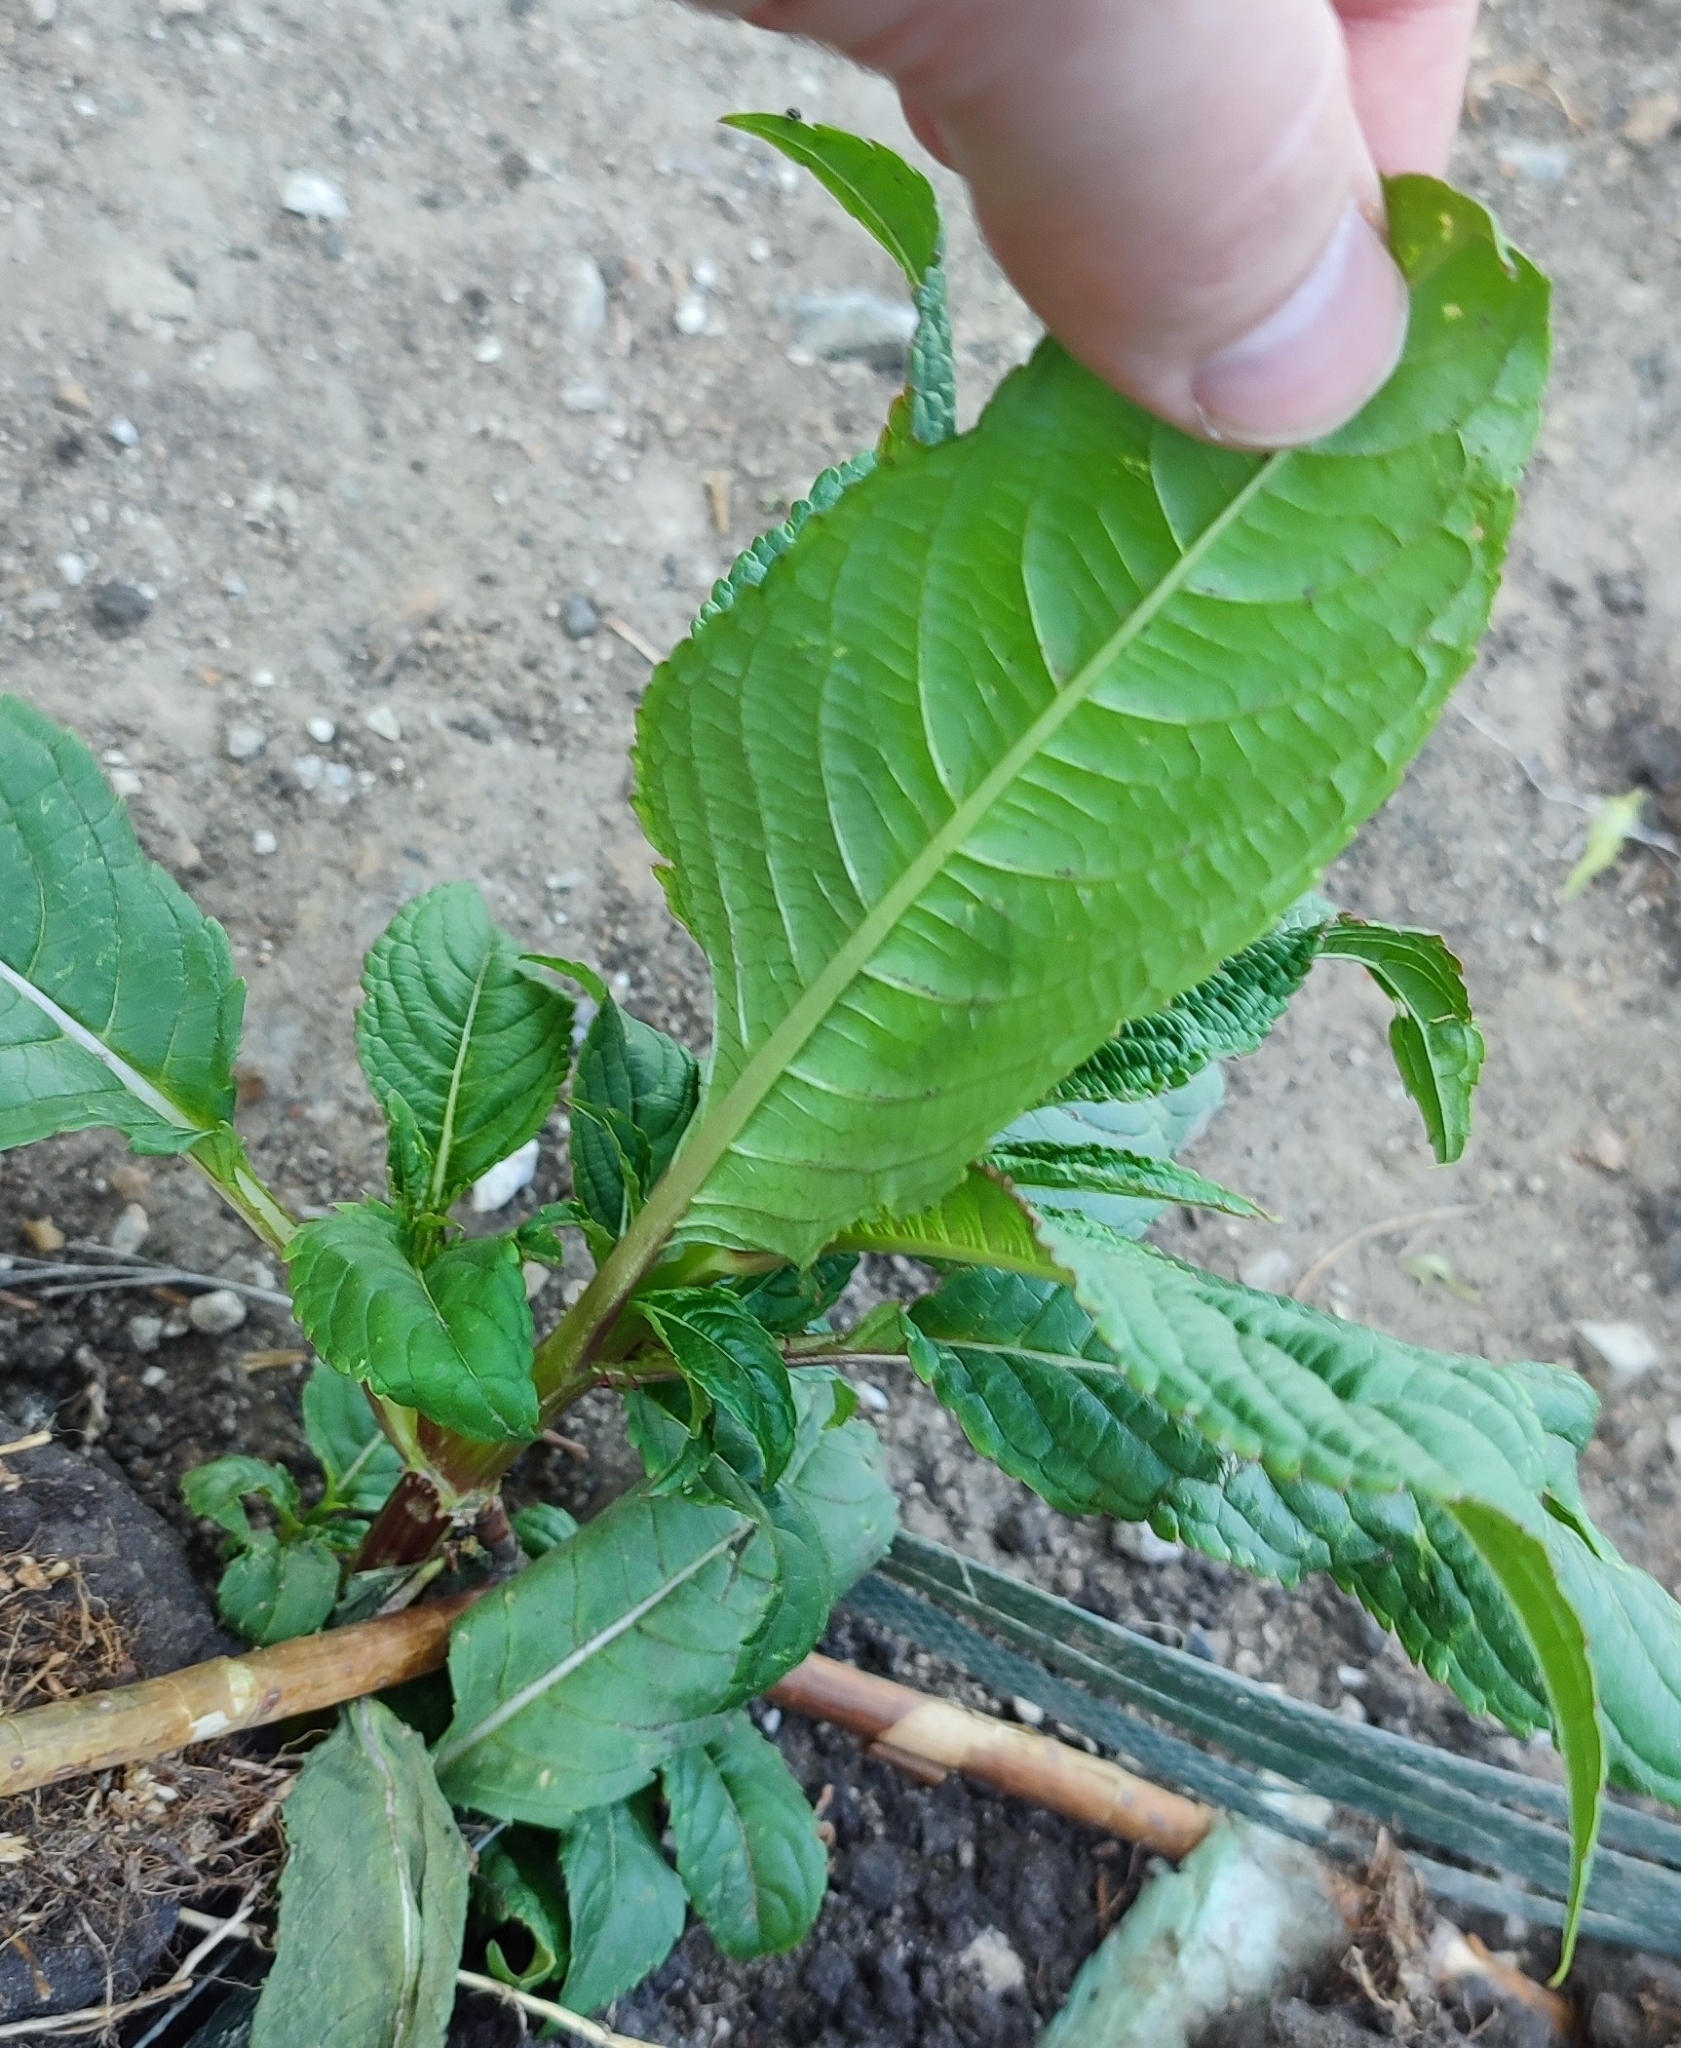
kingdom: Plantae
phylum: Tracheophyta
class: Magnoliopsida
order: Ericales
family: Balsaminaceae
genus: Impatiens
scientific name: Impatiens glandulifera
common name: Himalayan balsam
